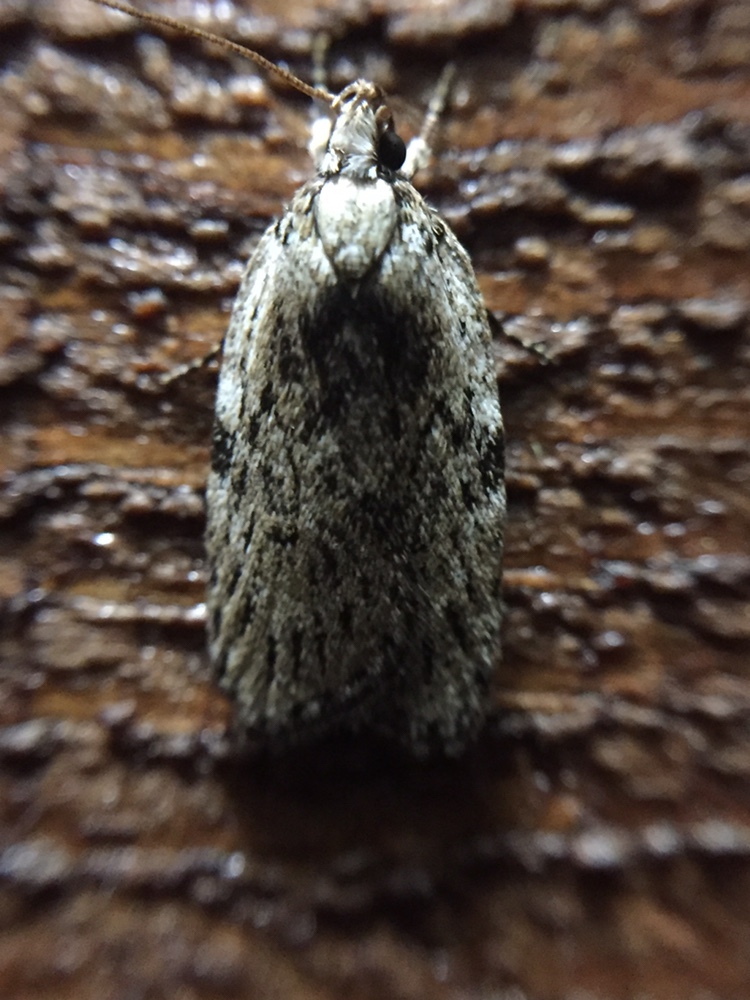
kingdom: Animalia
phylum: Arthropoda
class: Insecta
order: Lepidoptera
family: Depressariidae
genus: Phaeosaces
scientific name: Phaeosaces compsotypa
